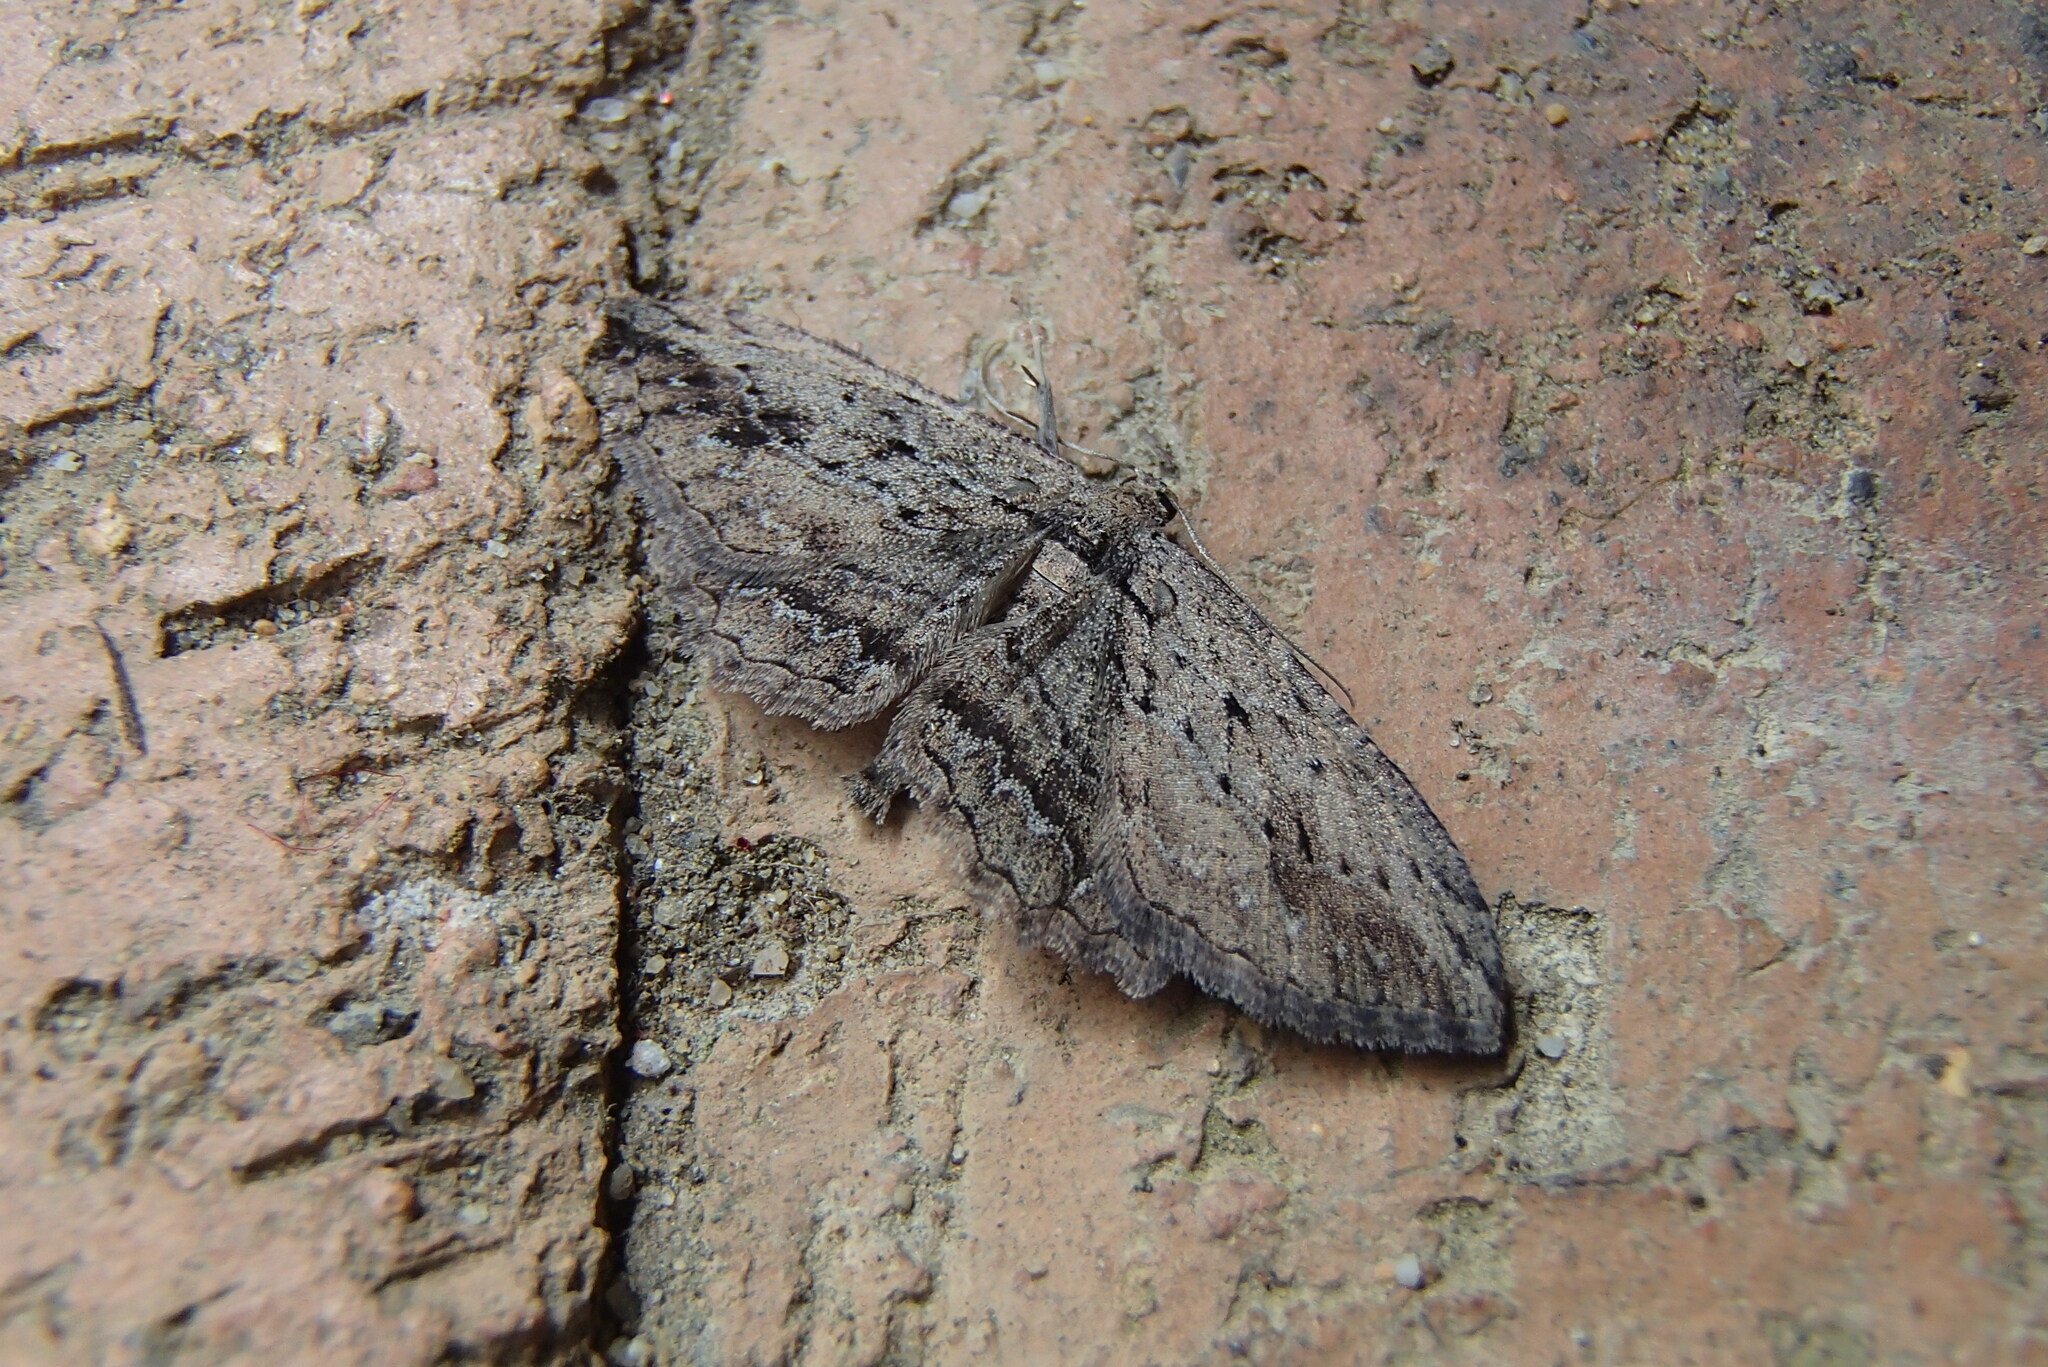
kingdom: Animalia
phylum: Arthropoda
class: Insecta
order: Lepidoptera
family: Geometridae
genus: Ectropis
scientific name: Ectropis lignea
